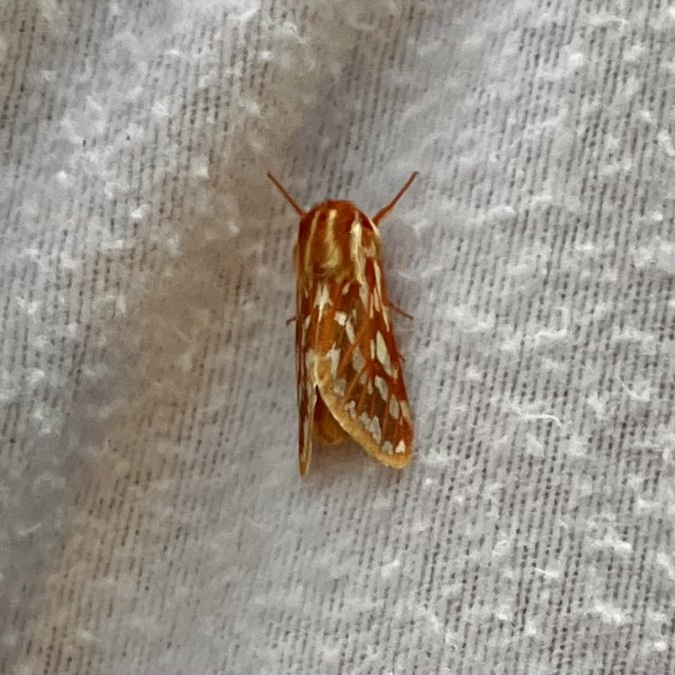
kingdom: Animalia
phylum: Arthropoda
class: Insecta
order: Lepidoptera
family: Erebidae
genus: Lophocampa
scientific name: Lophocampa roseata
